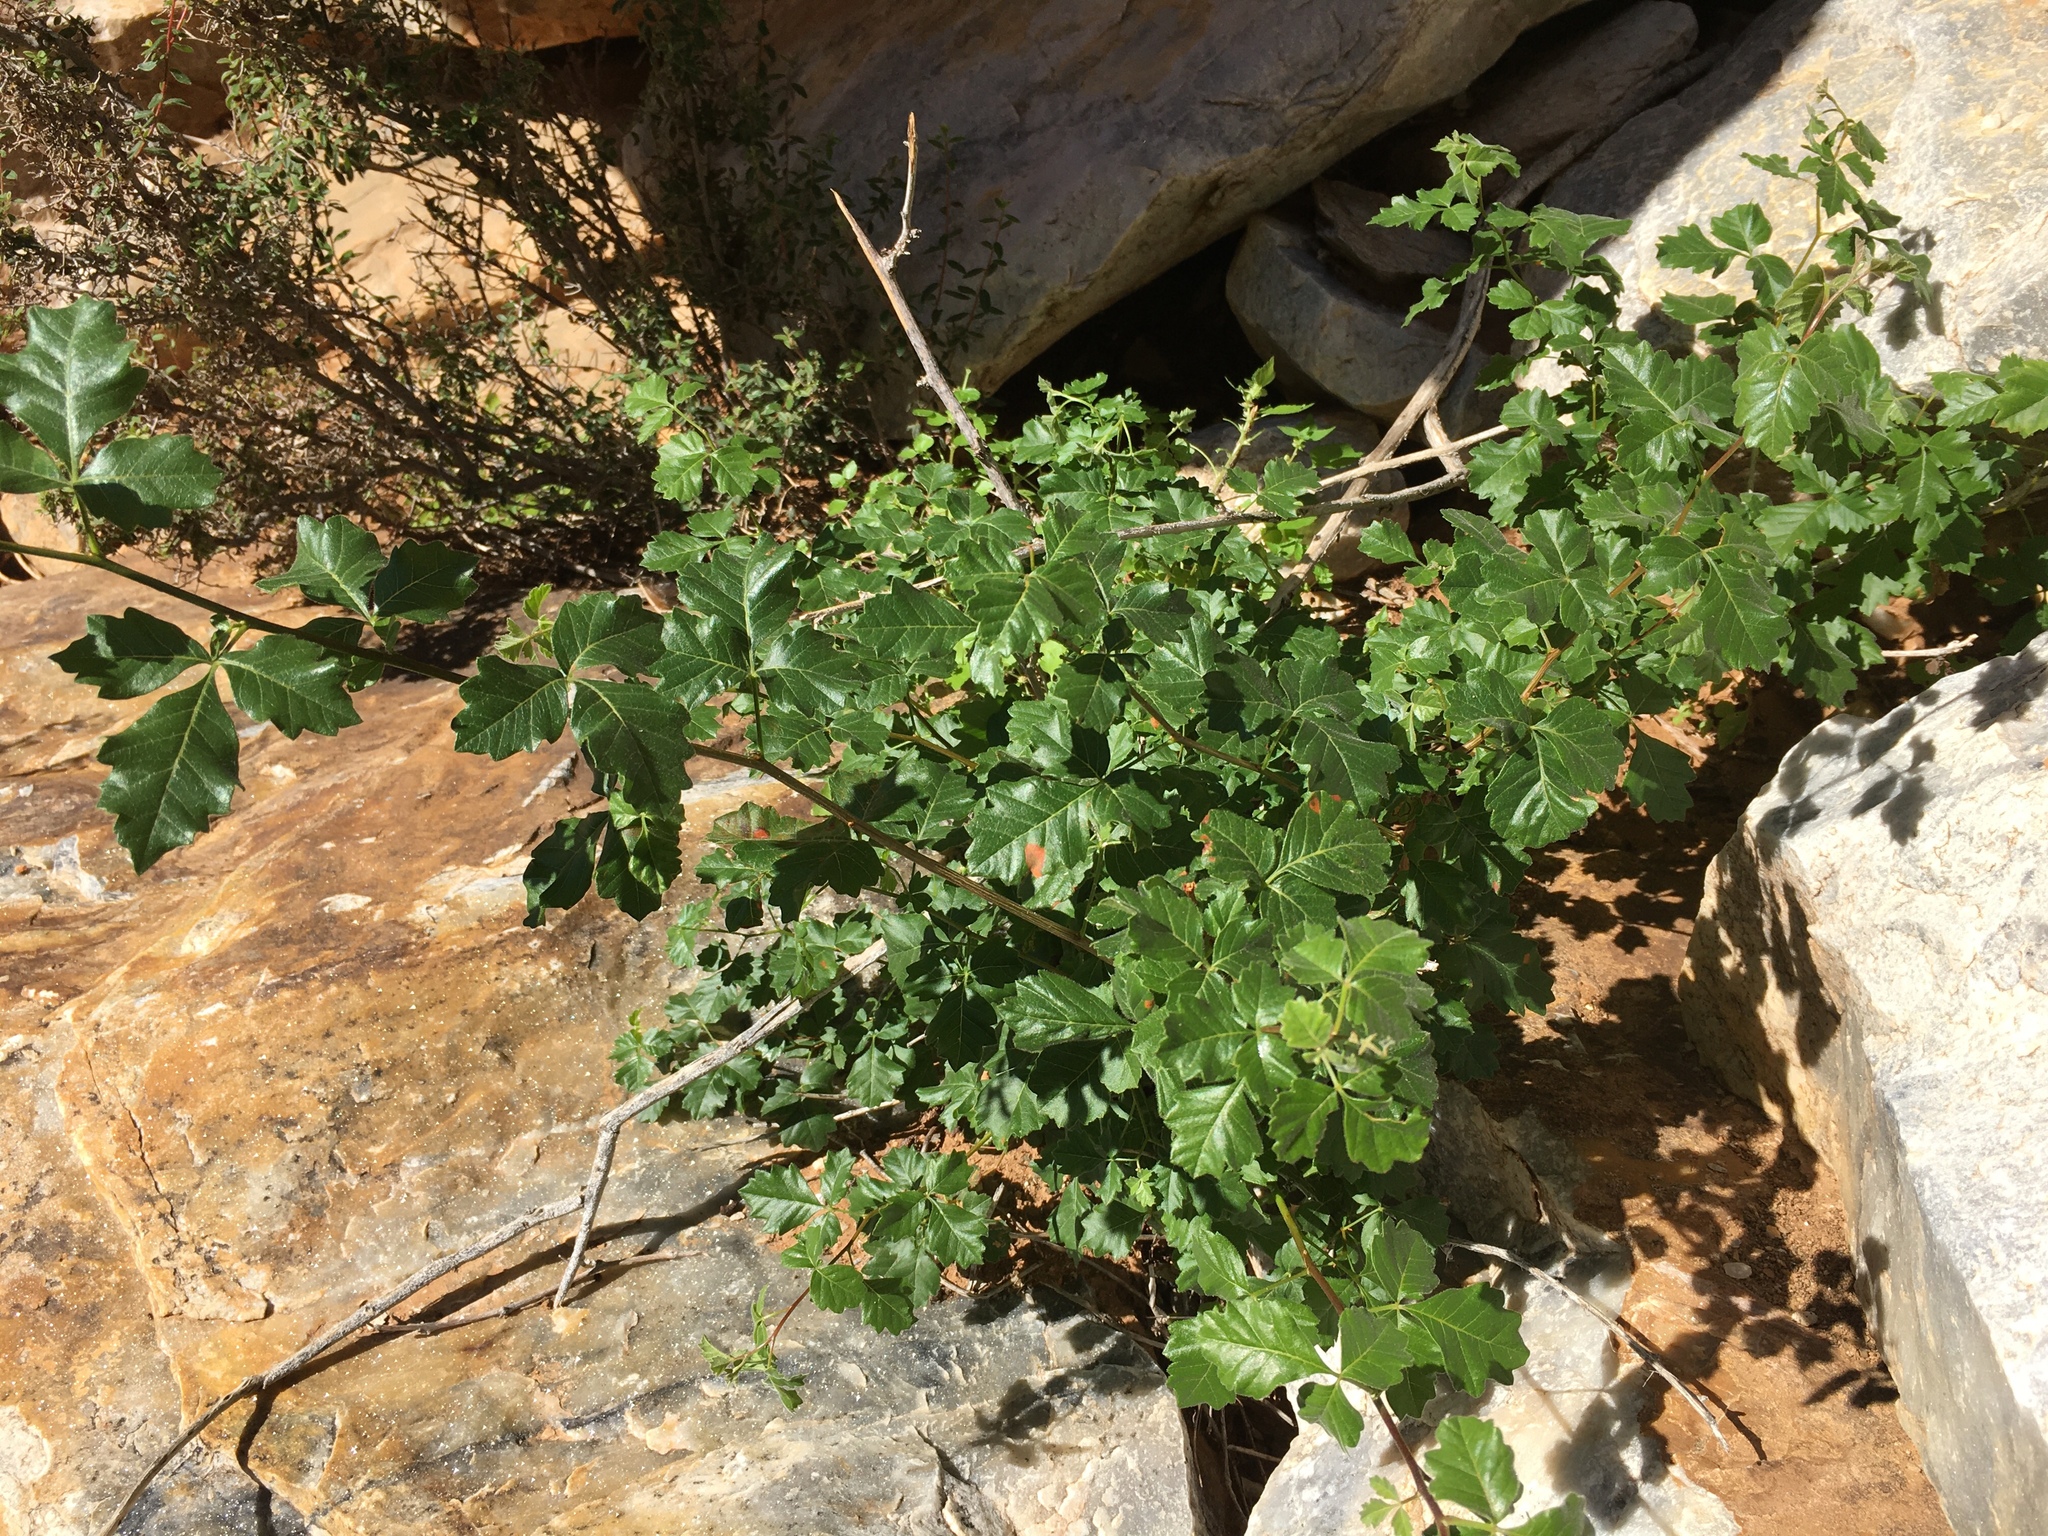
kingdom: Plantae
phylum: Tracheophyta
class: Magnoliopsida
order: Sapindales
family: Anacardiaceae
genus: Searsia
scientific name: Searsia populifolia
